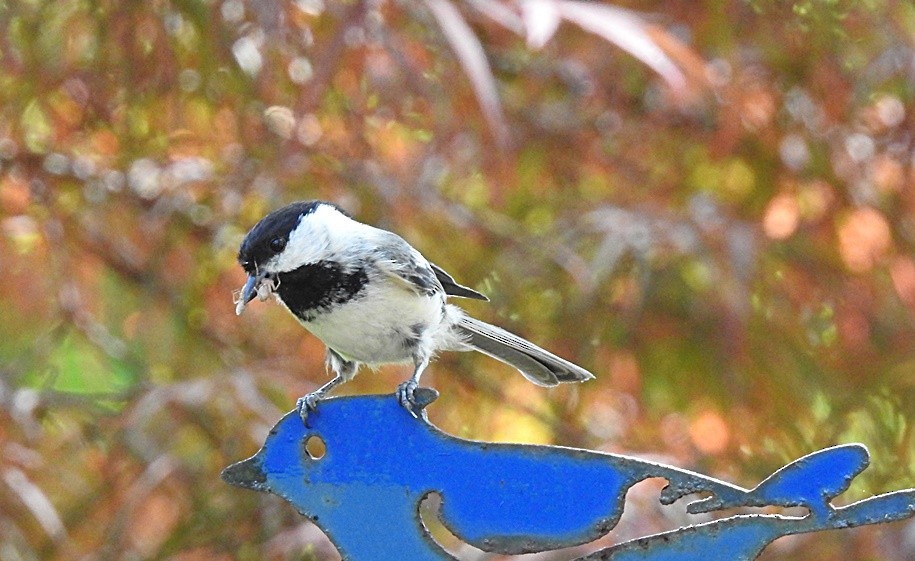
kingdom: Animalia
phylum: Chordata
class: Aves
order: Passeriformes
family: Paridae
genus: Poecile
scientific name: Poecile atricapillus
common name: Black-capped chickadee
